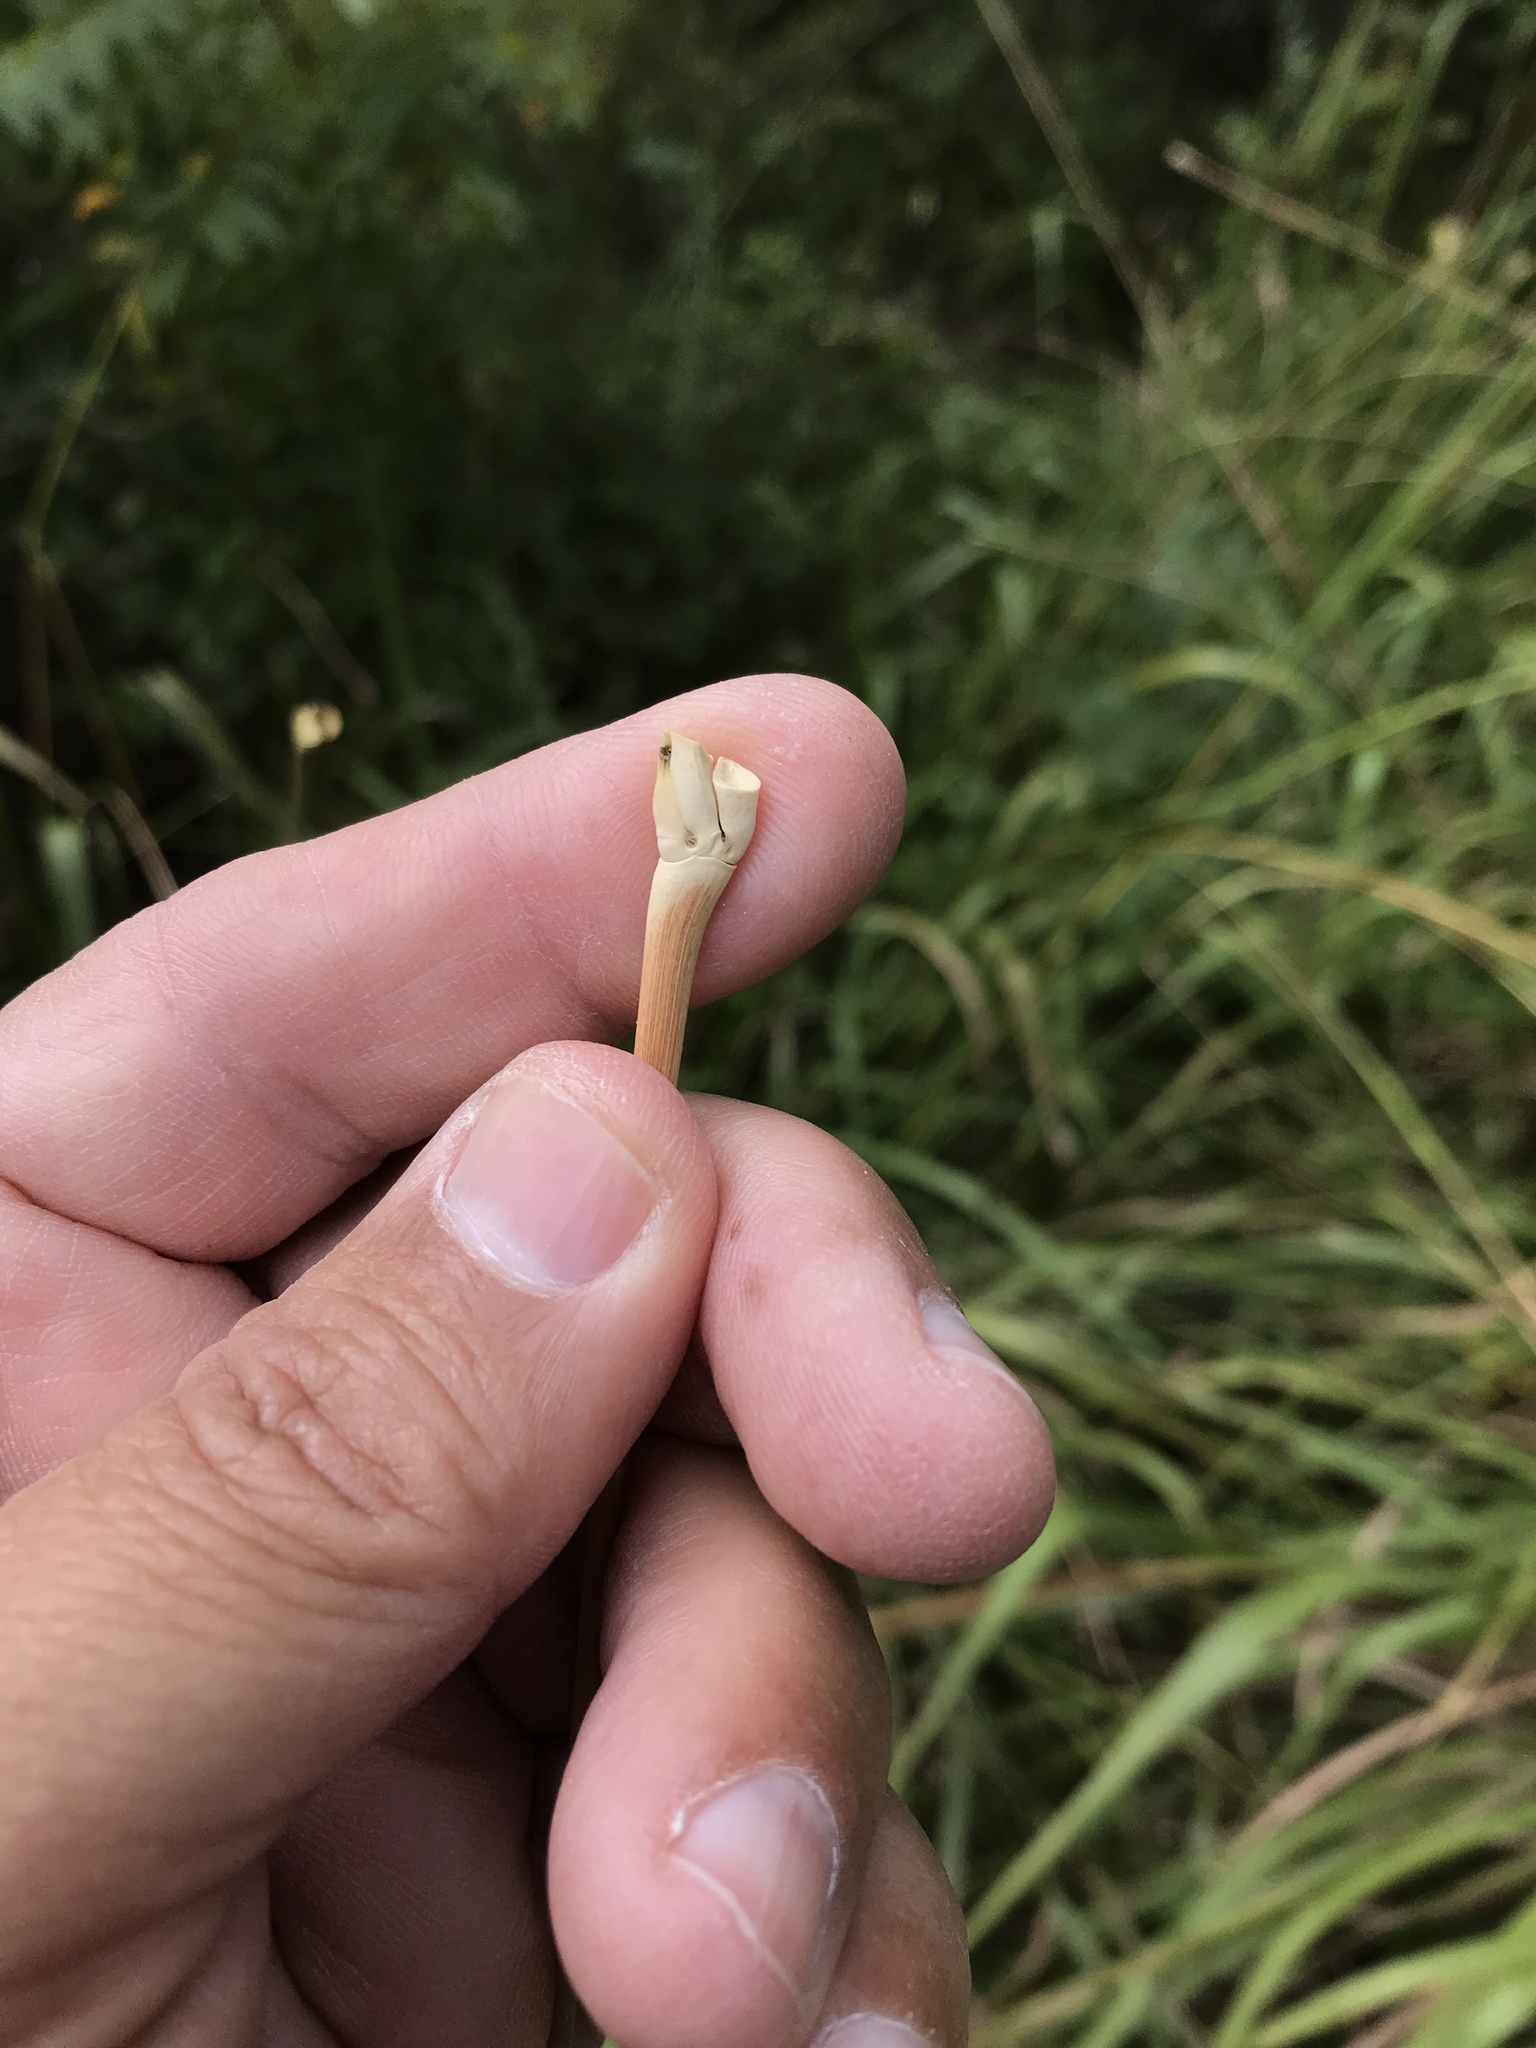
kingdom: Plantae
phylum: Tracheophyta
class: Liliopsida
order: Poales
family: Poaceae
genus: Tripsacum
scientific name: Tripsacum dactyloides
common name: Buffalo-grass
